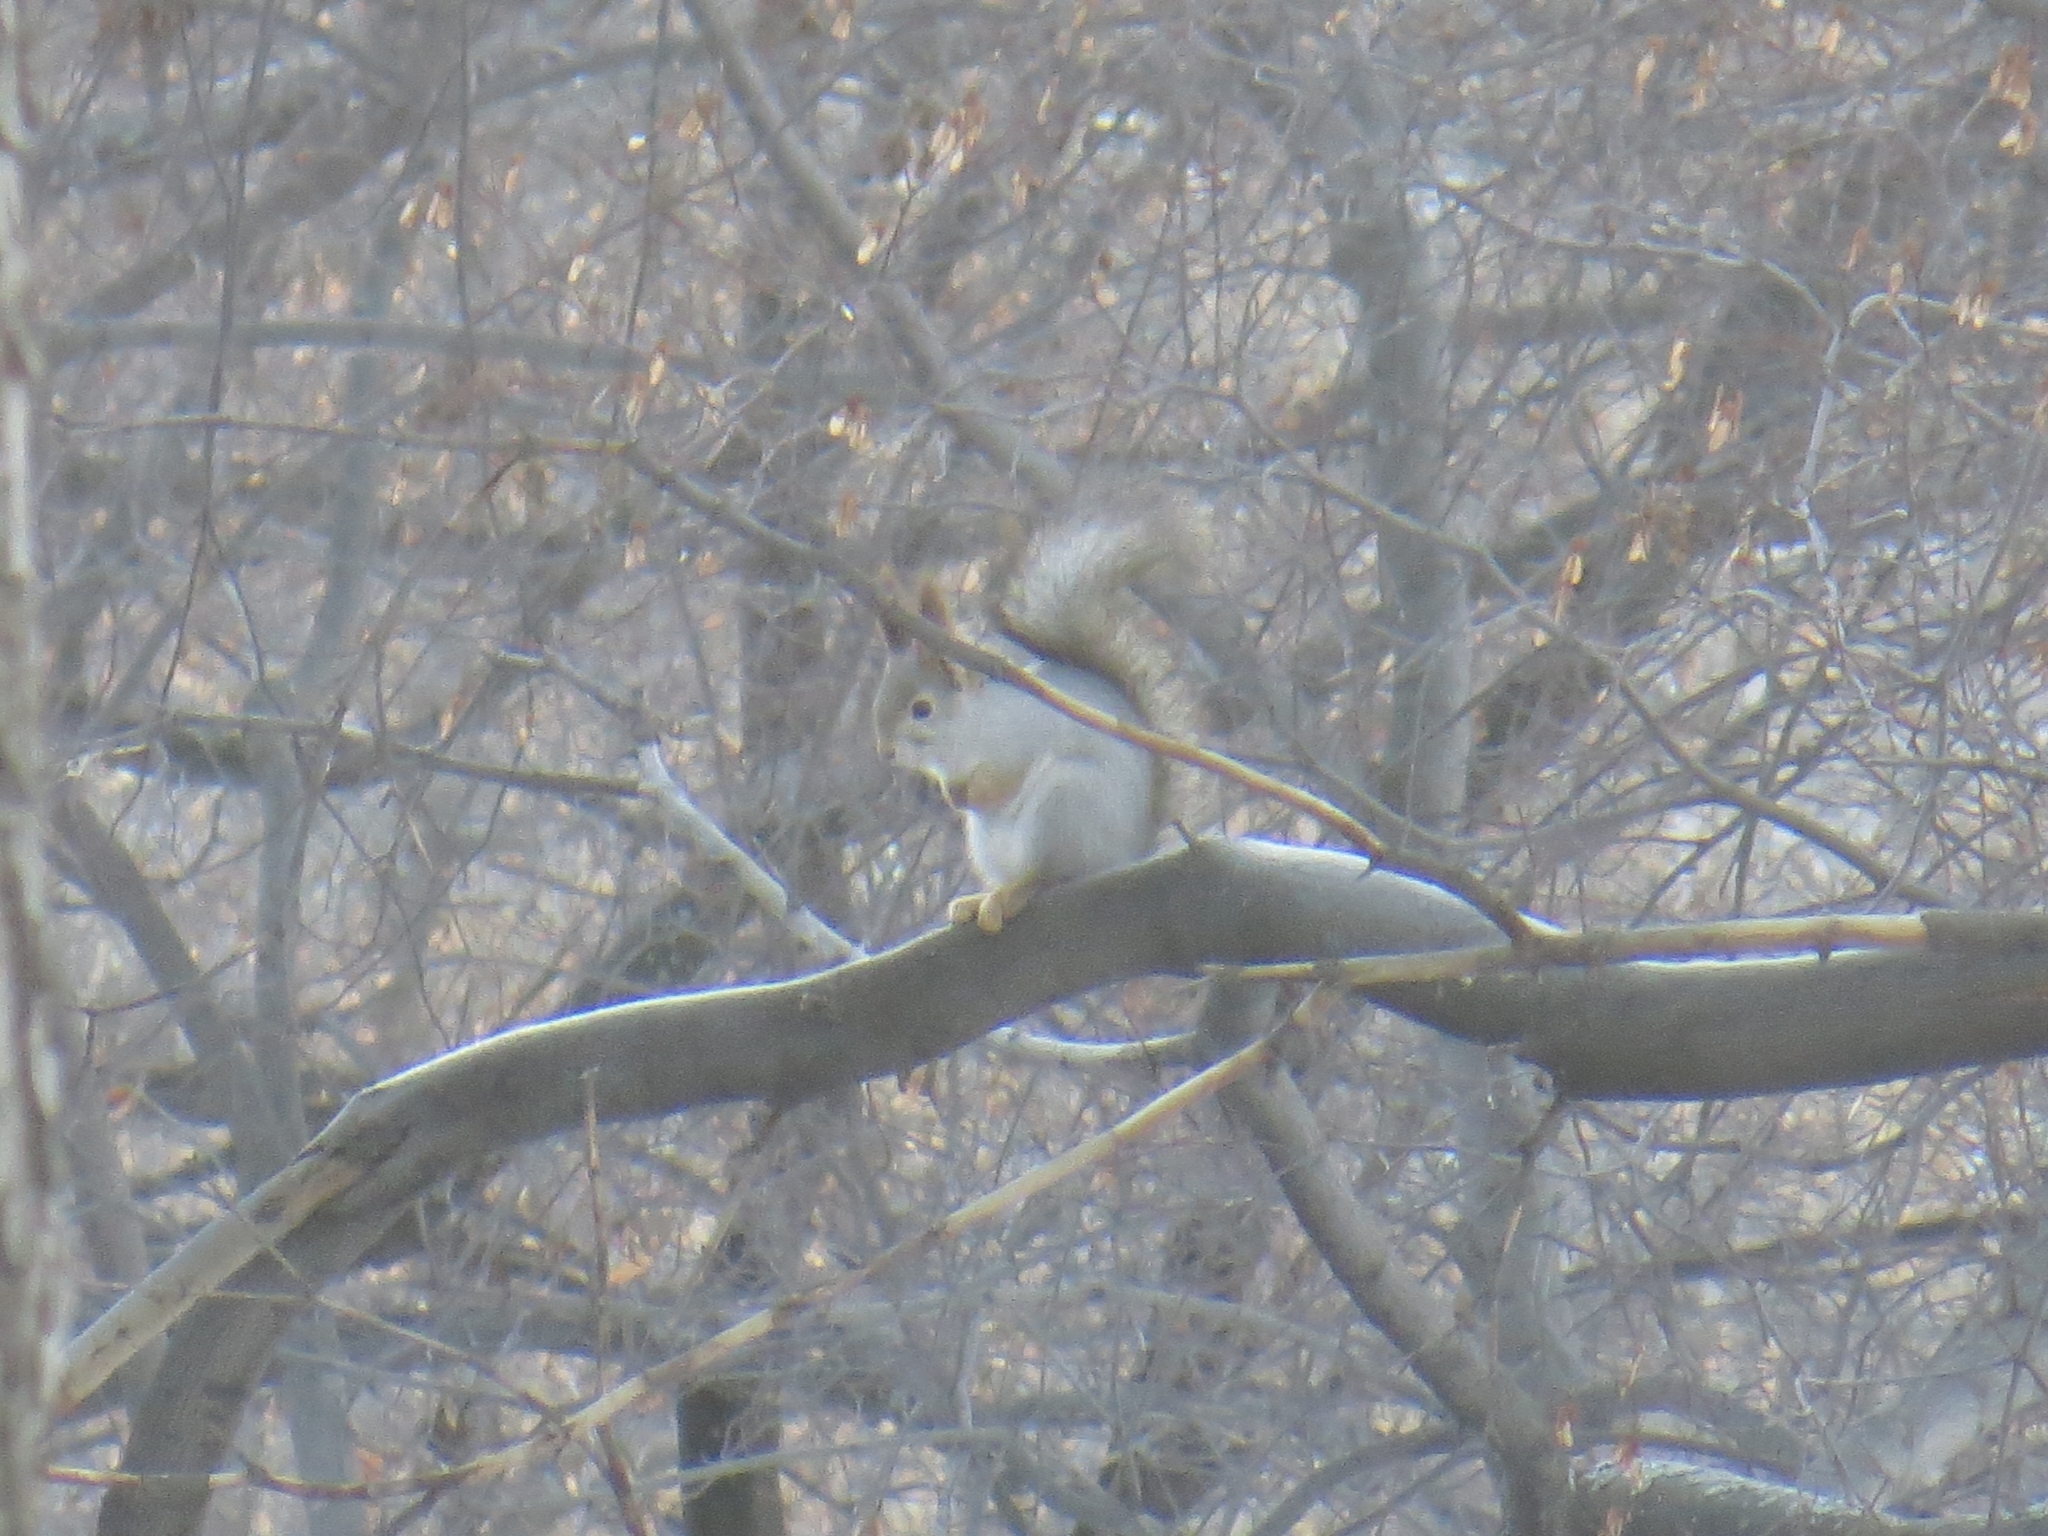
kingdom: Animalia
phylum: Chordata
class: Mammalia
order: Rodentia
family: Sciuridae
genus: Sciurus
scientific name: Sciurus vulgaris
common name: Eurasian red squirrel
